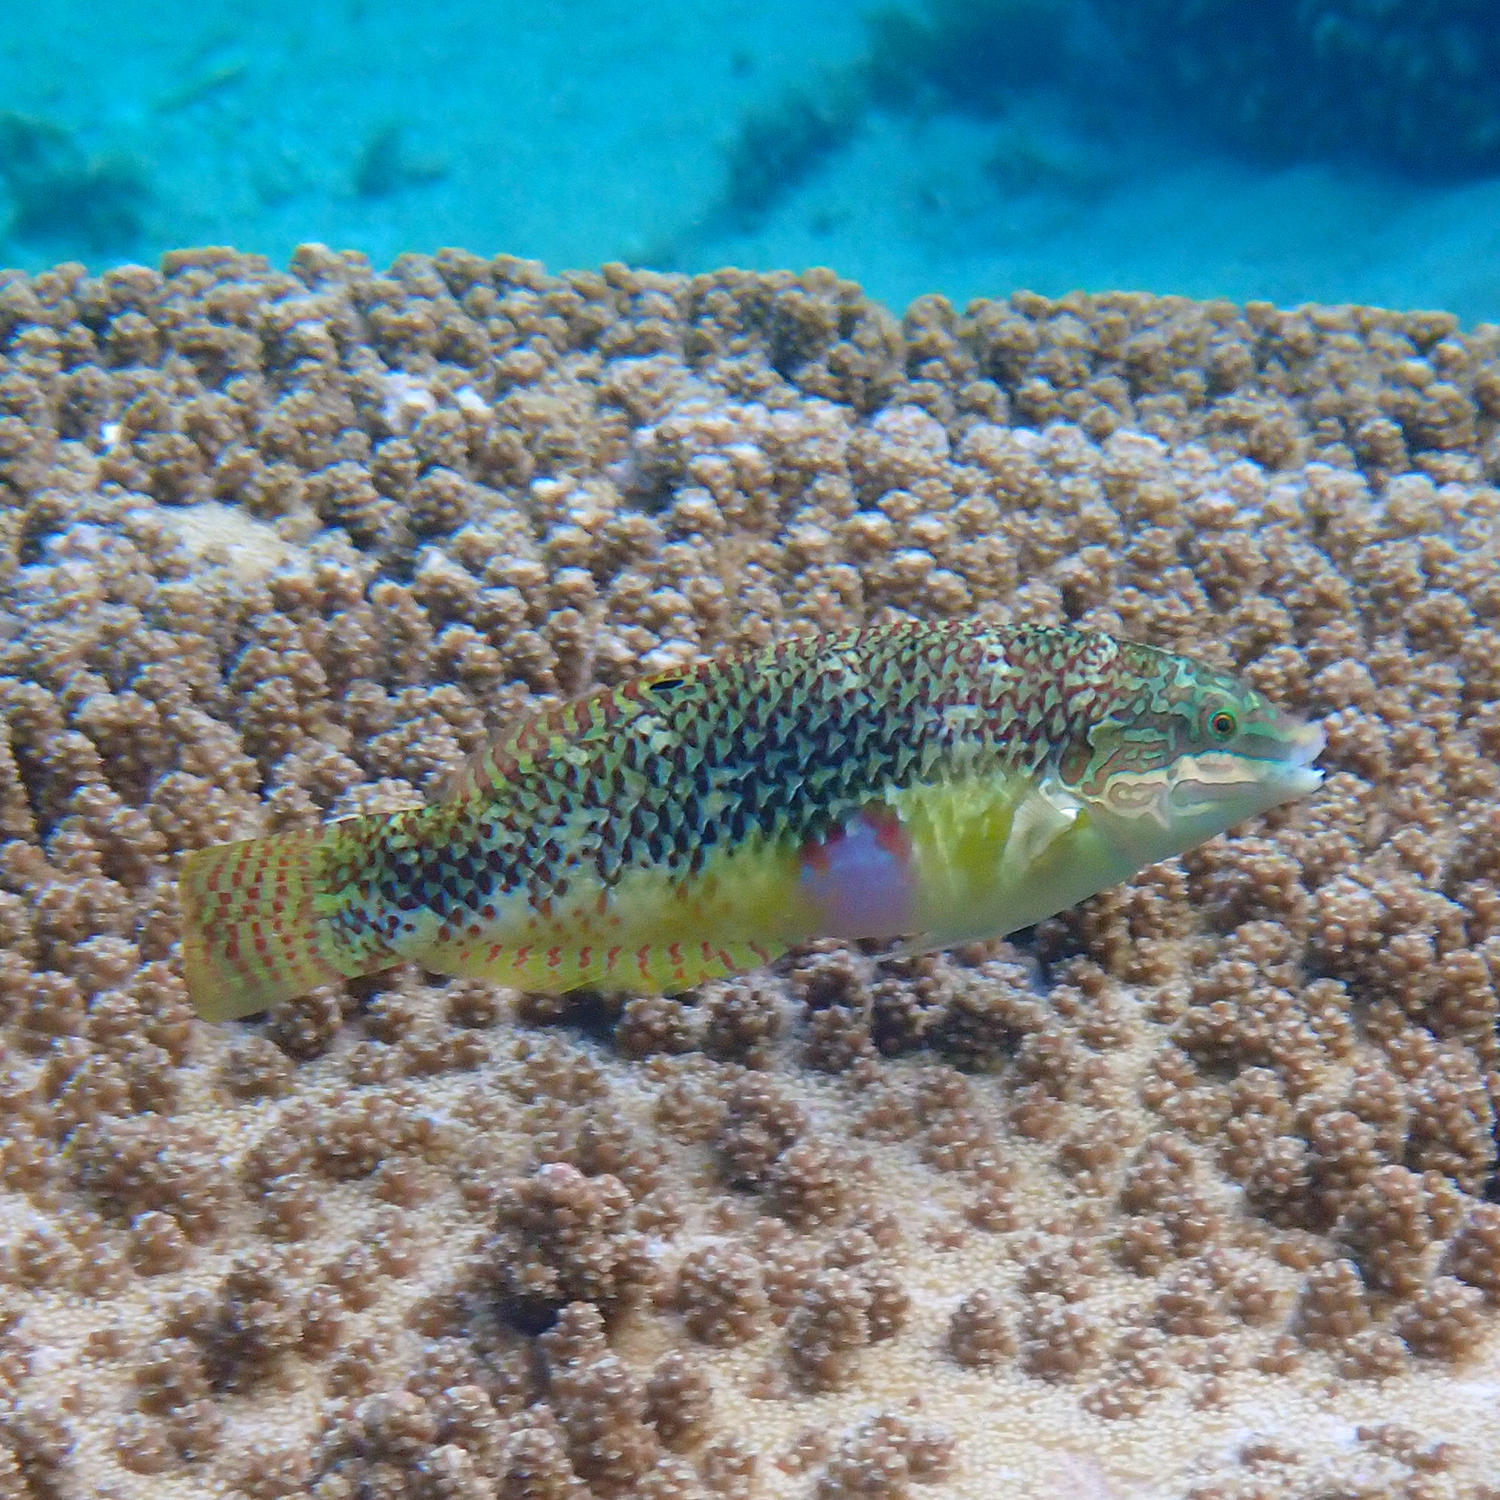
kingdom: Animalia
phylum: Chordata
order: Perciformes
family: Labridae
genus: Halichoeres
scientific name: Halichoeres margaritaceus
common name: Pink-belly wrasse
